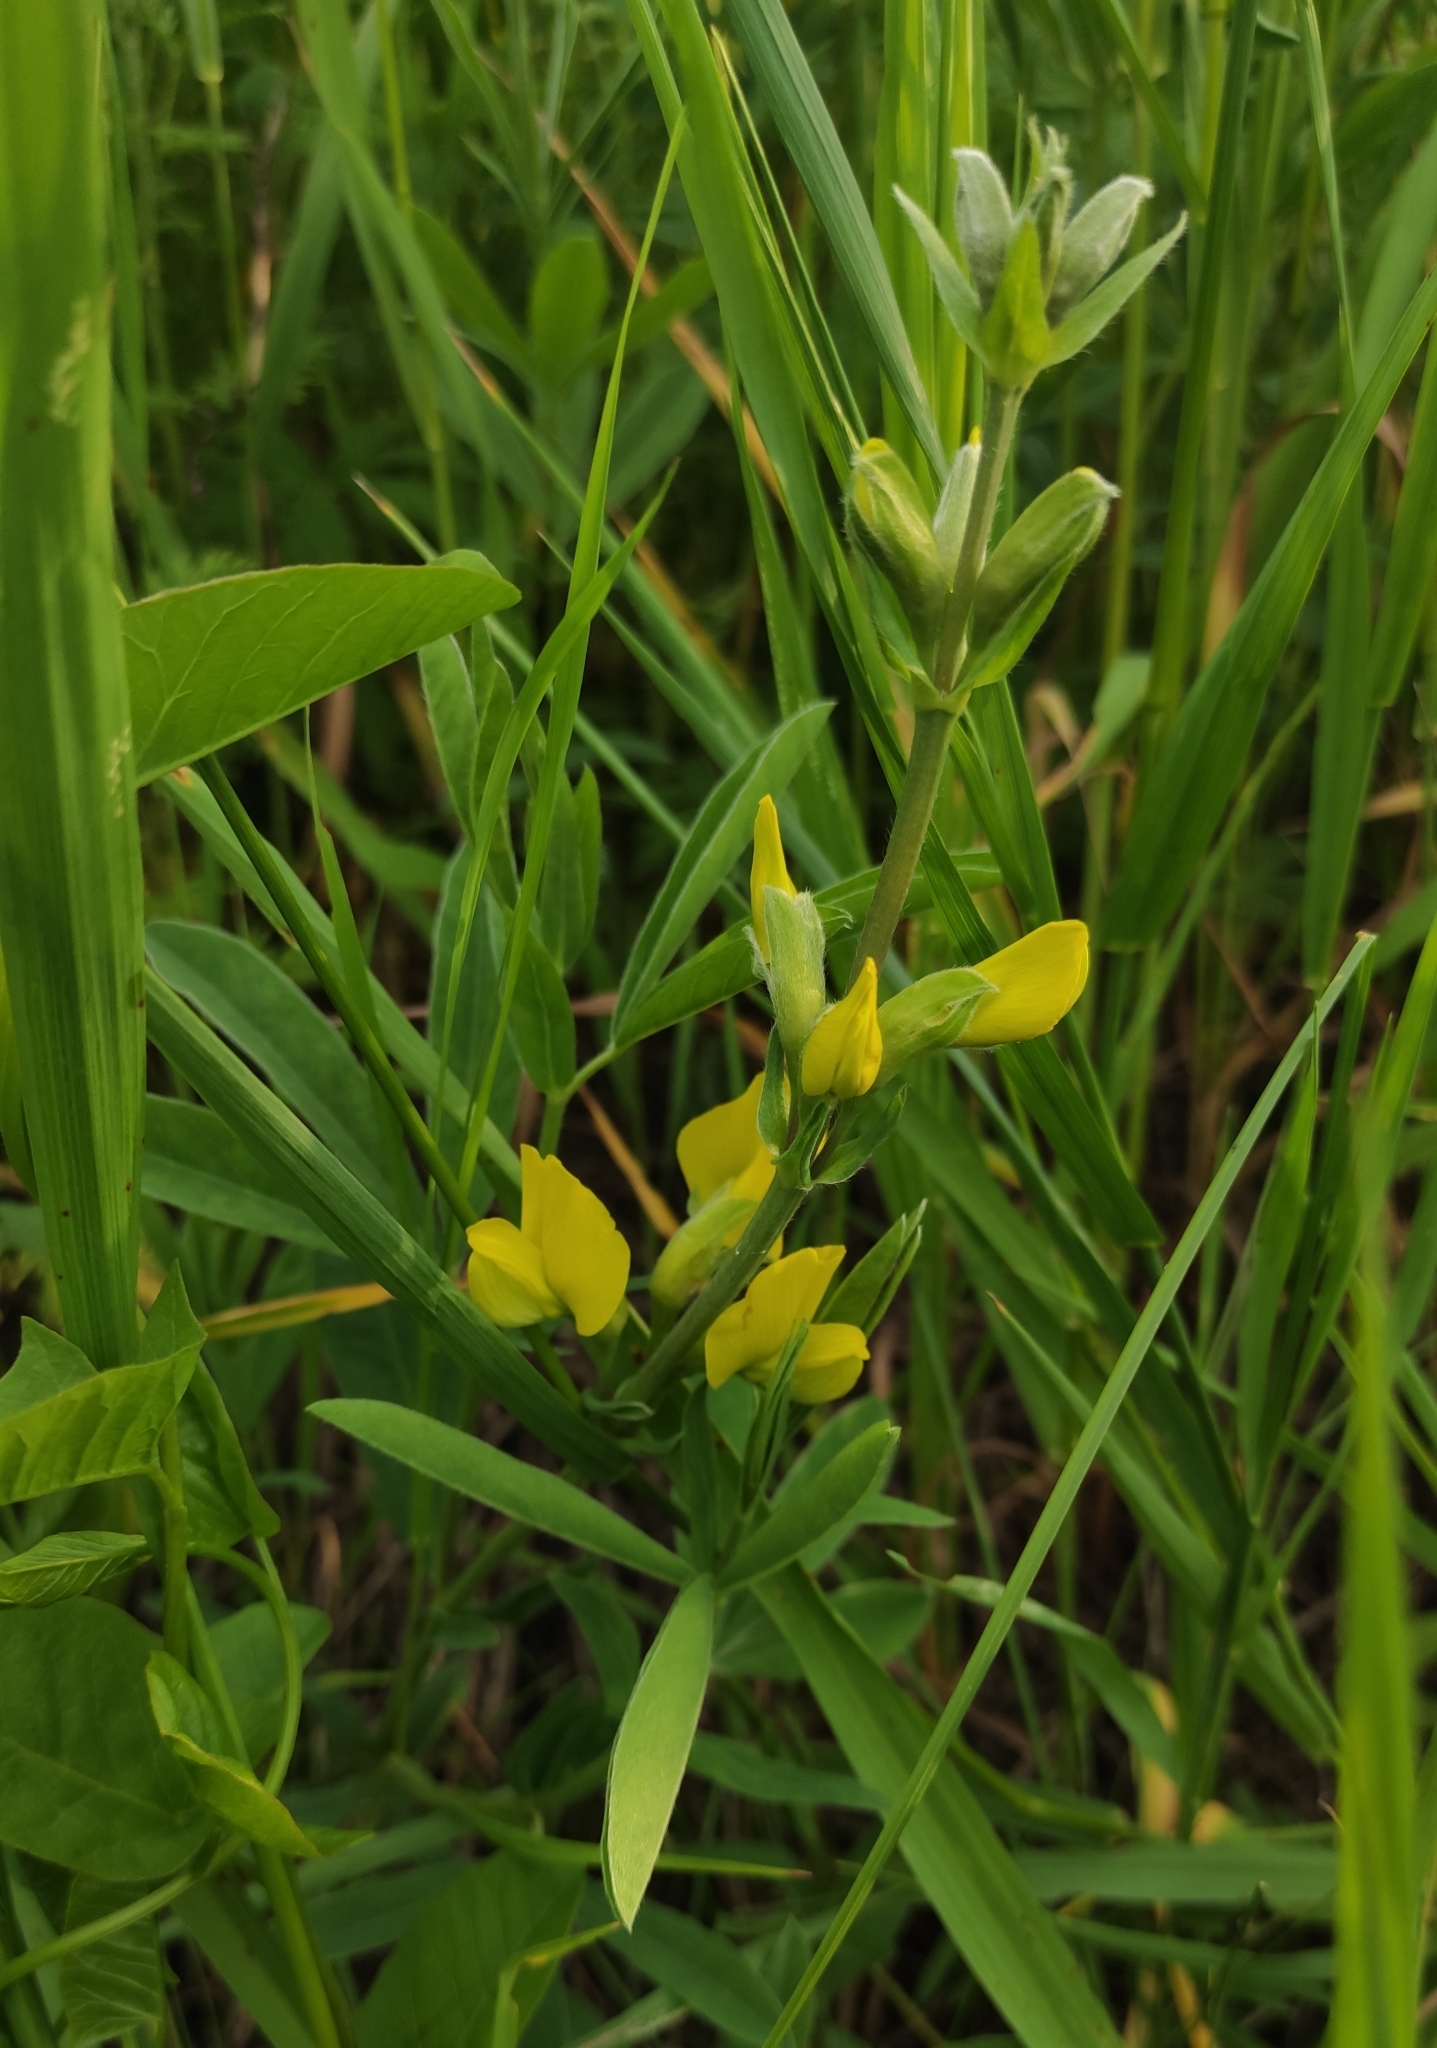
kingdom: Plantae
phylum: Tracheophyta
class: Magnoliopsida
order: Fabales
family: Fabaceae
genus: Thermopsis
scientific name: Thermopsis lanceolata
